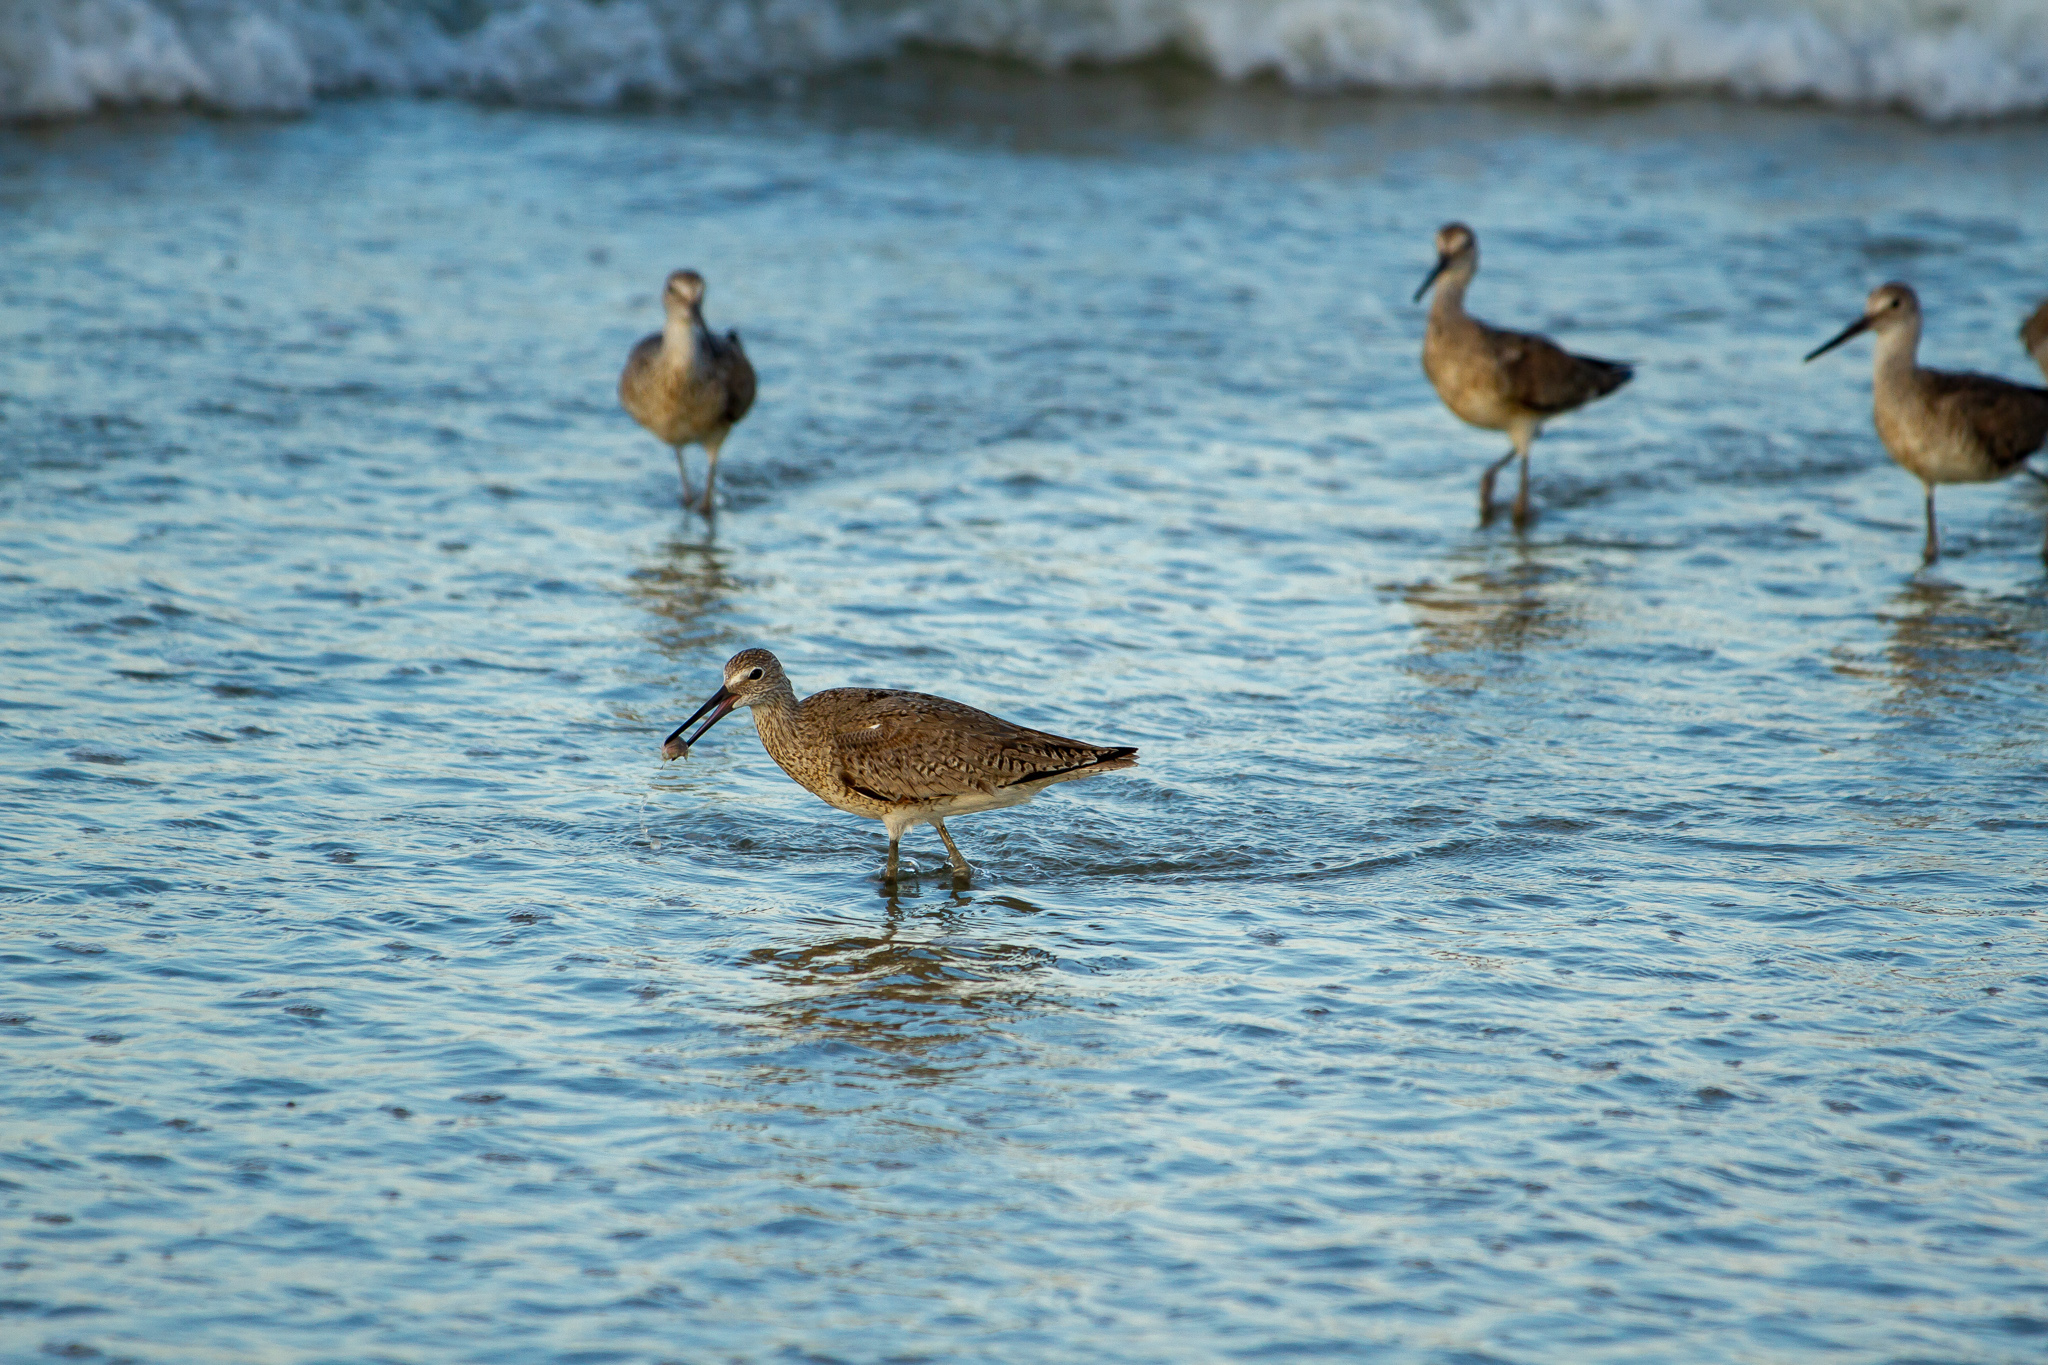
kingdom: Animalia
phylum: Chordata
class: Aves
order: Charadriiformes
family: Scolopacidae
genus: Tringa
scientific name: Tringa semipalmata
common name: Willet
